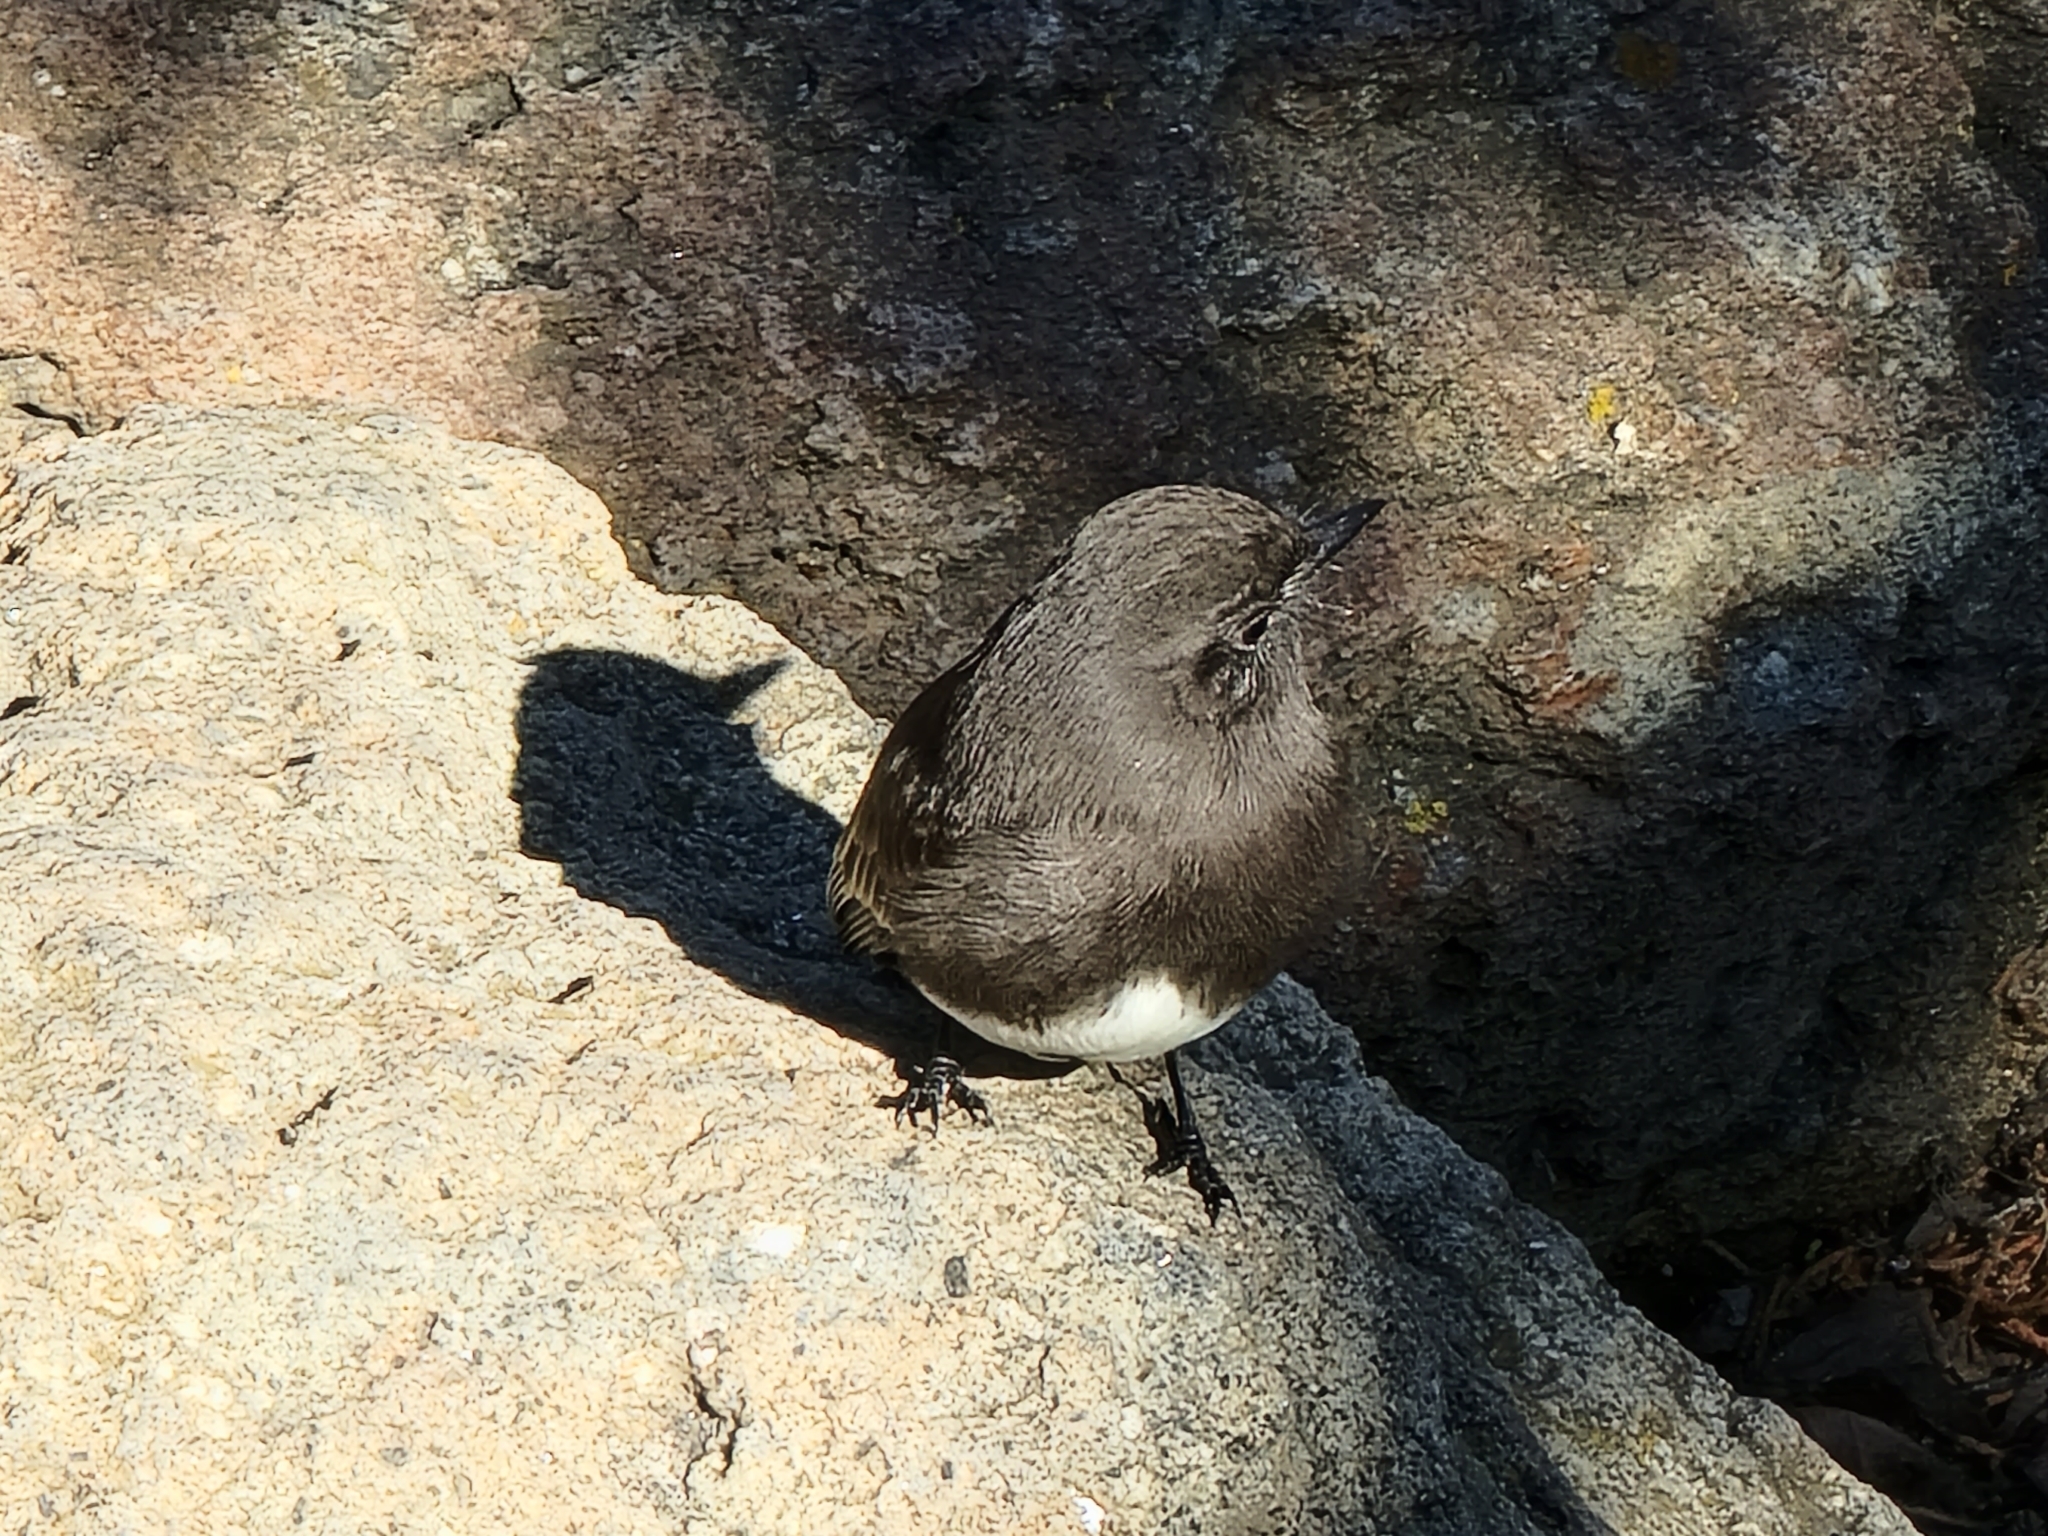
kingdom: Animalia
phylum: Chordata
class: Aves
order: Passeriformes
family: Tyrannidae
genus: Sayornis
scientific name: Sayornis nigricans
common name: Black phoebe
